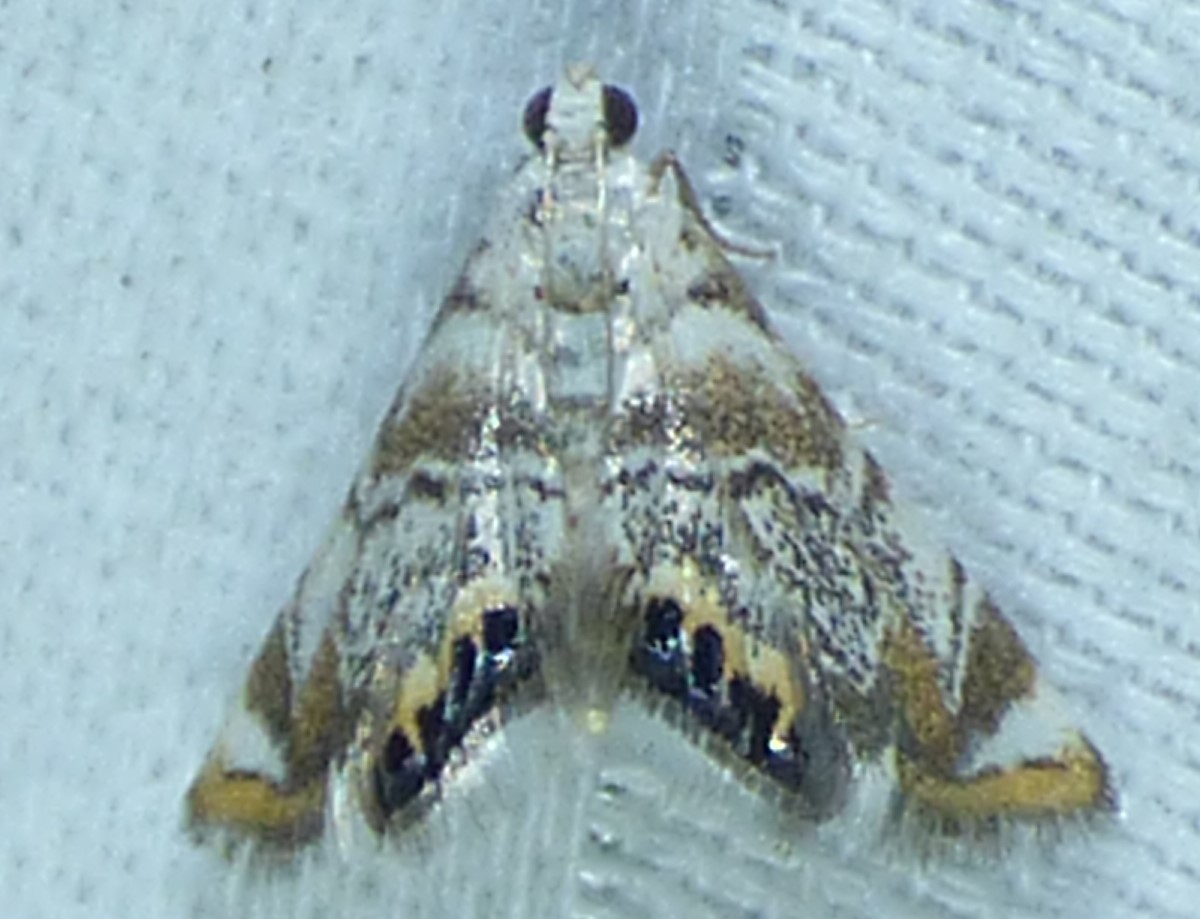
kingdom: Animalia
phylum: Arthropoda
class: Insecta
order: Lepidoptera
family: Crambidae
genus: Eoparargyractis
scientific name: Eoparargyractis irroratalis
